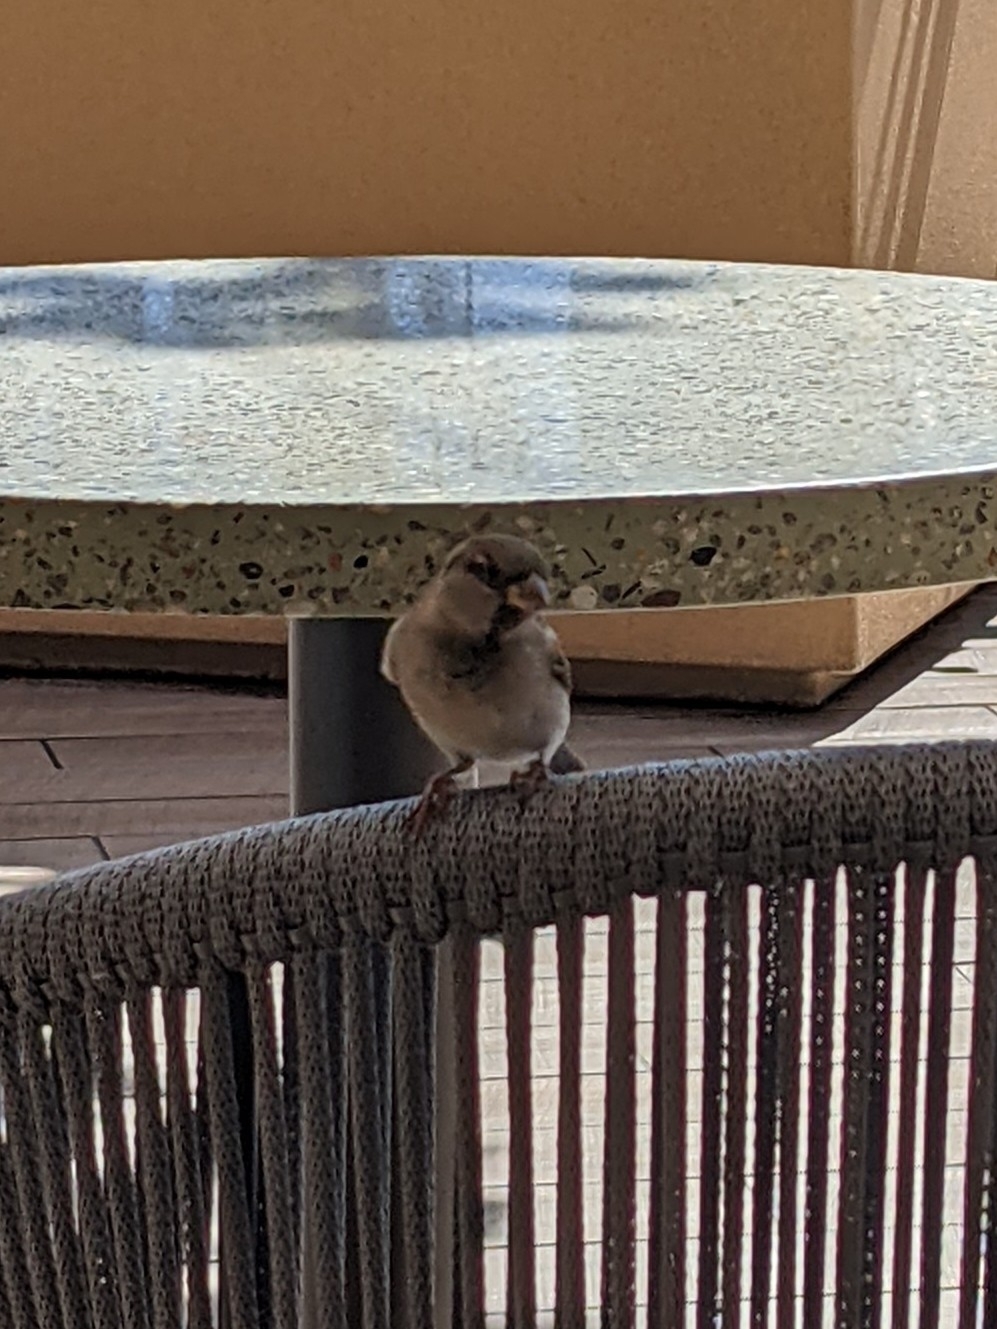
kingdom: Animalia
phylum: Chordata
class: Aves
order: Passeriformes
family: Passeridae
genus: Passer
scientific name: Passer domesticus
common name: House sparrow
